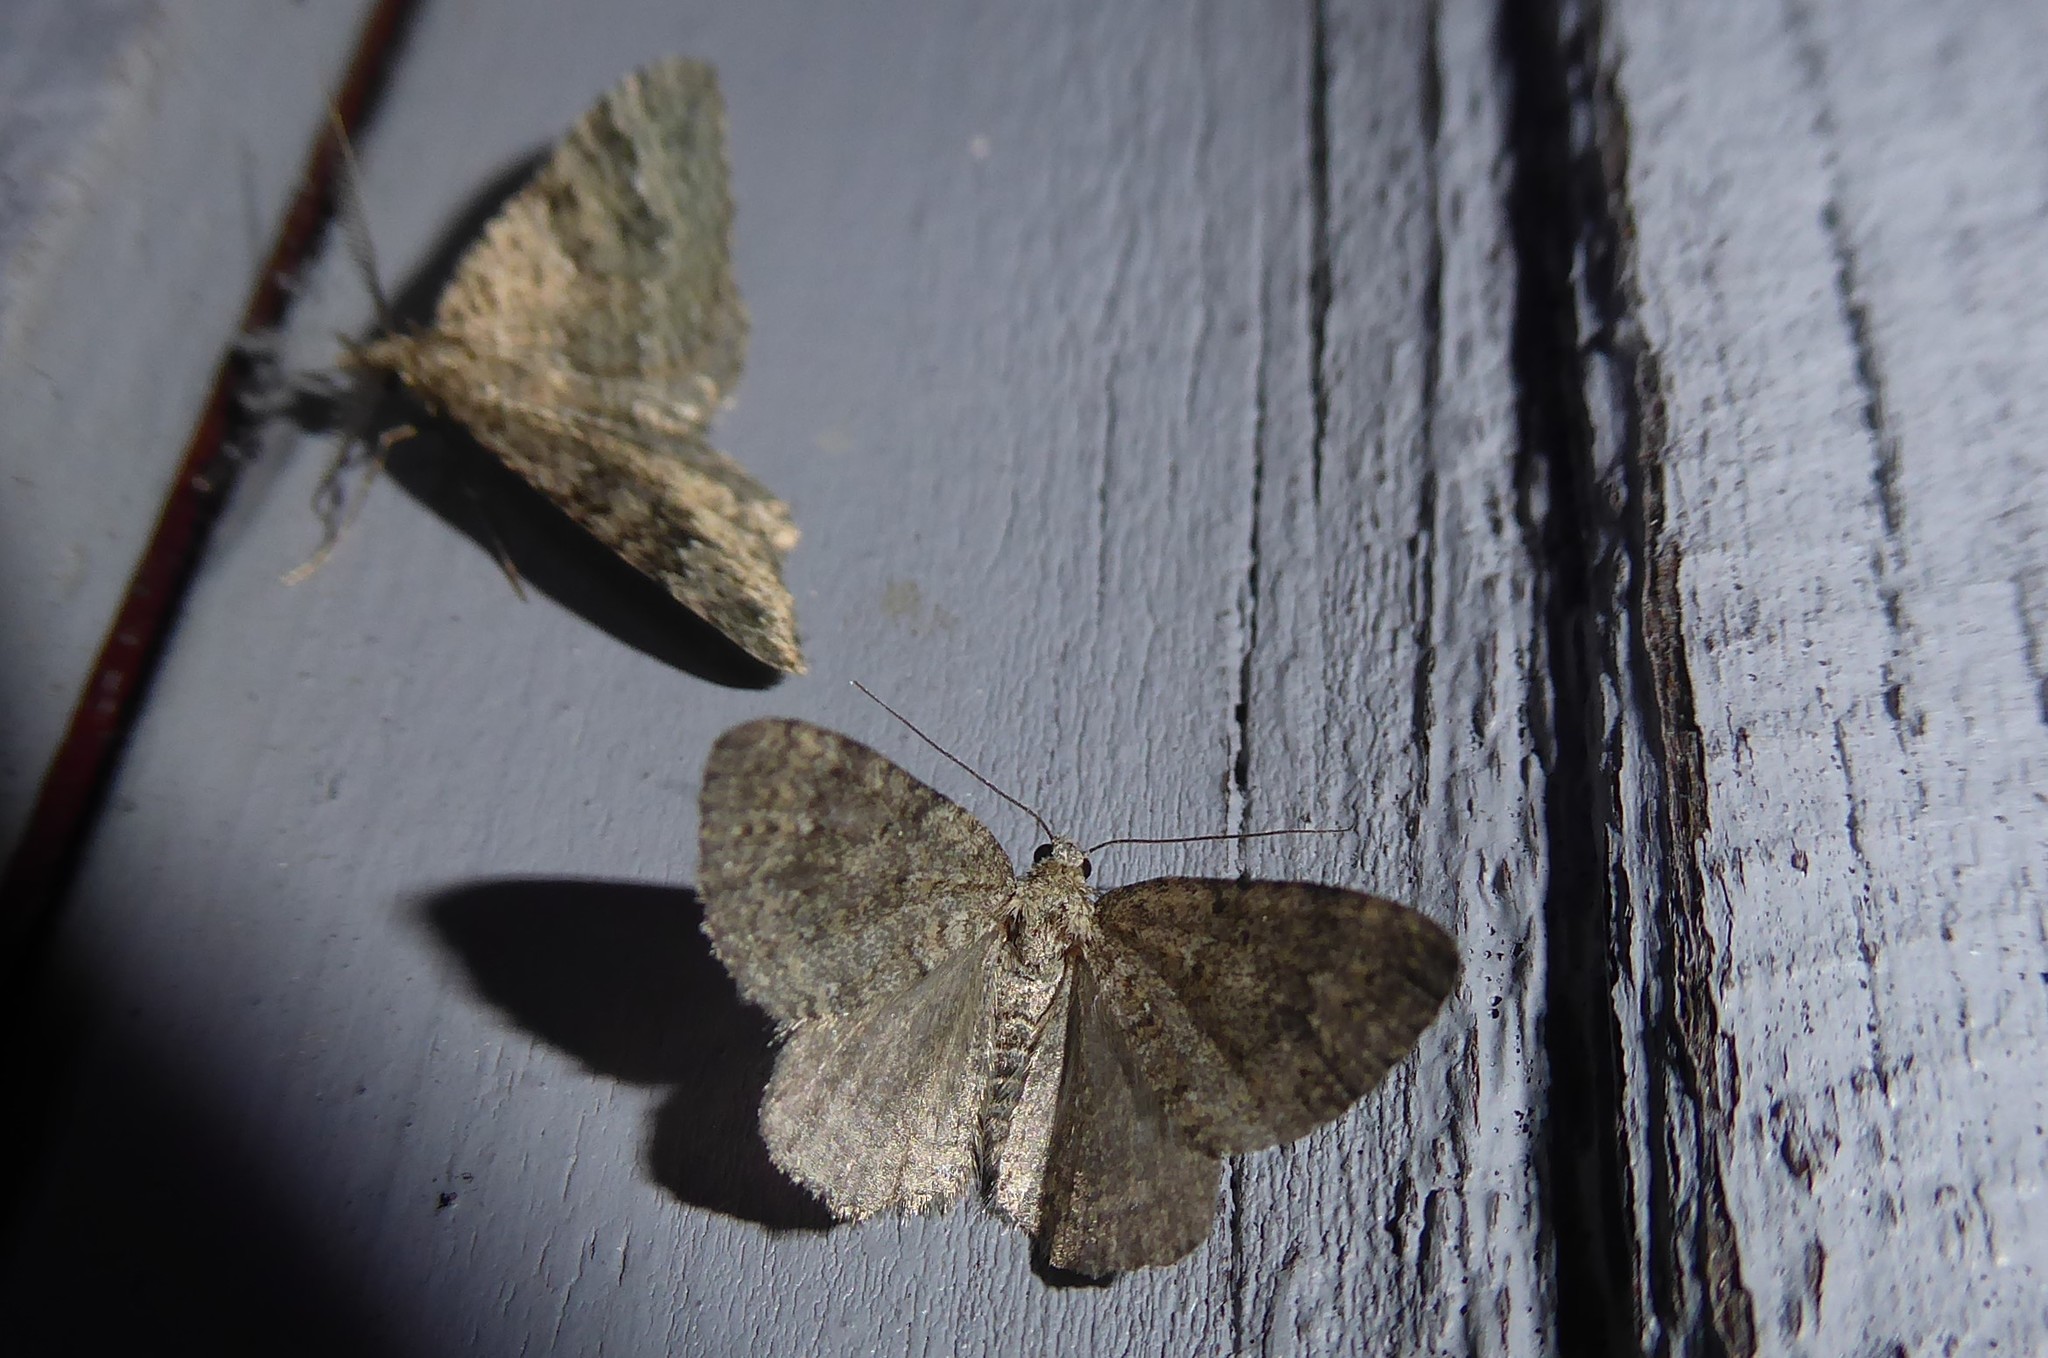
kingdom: Animalia
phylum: Arthropoda
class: Insecta
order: Lepidoptera
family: Geometridae
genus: Helastia
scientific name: Helastia corcularia
